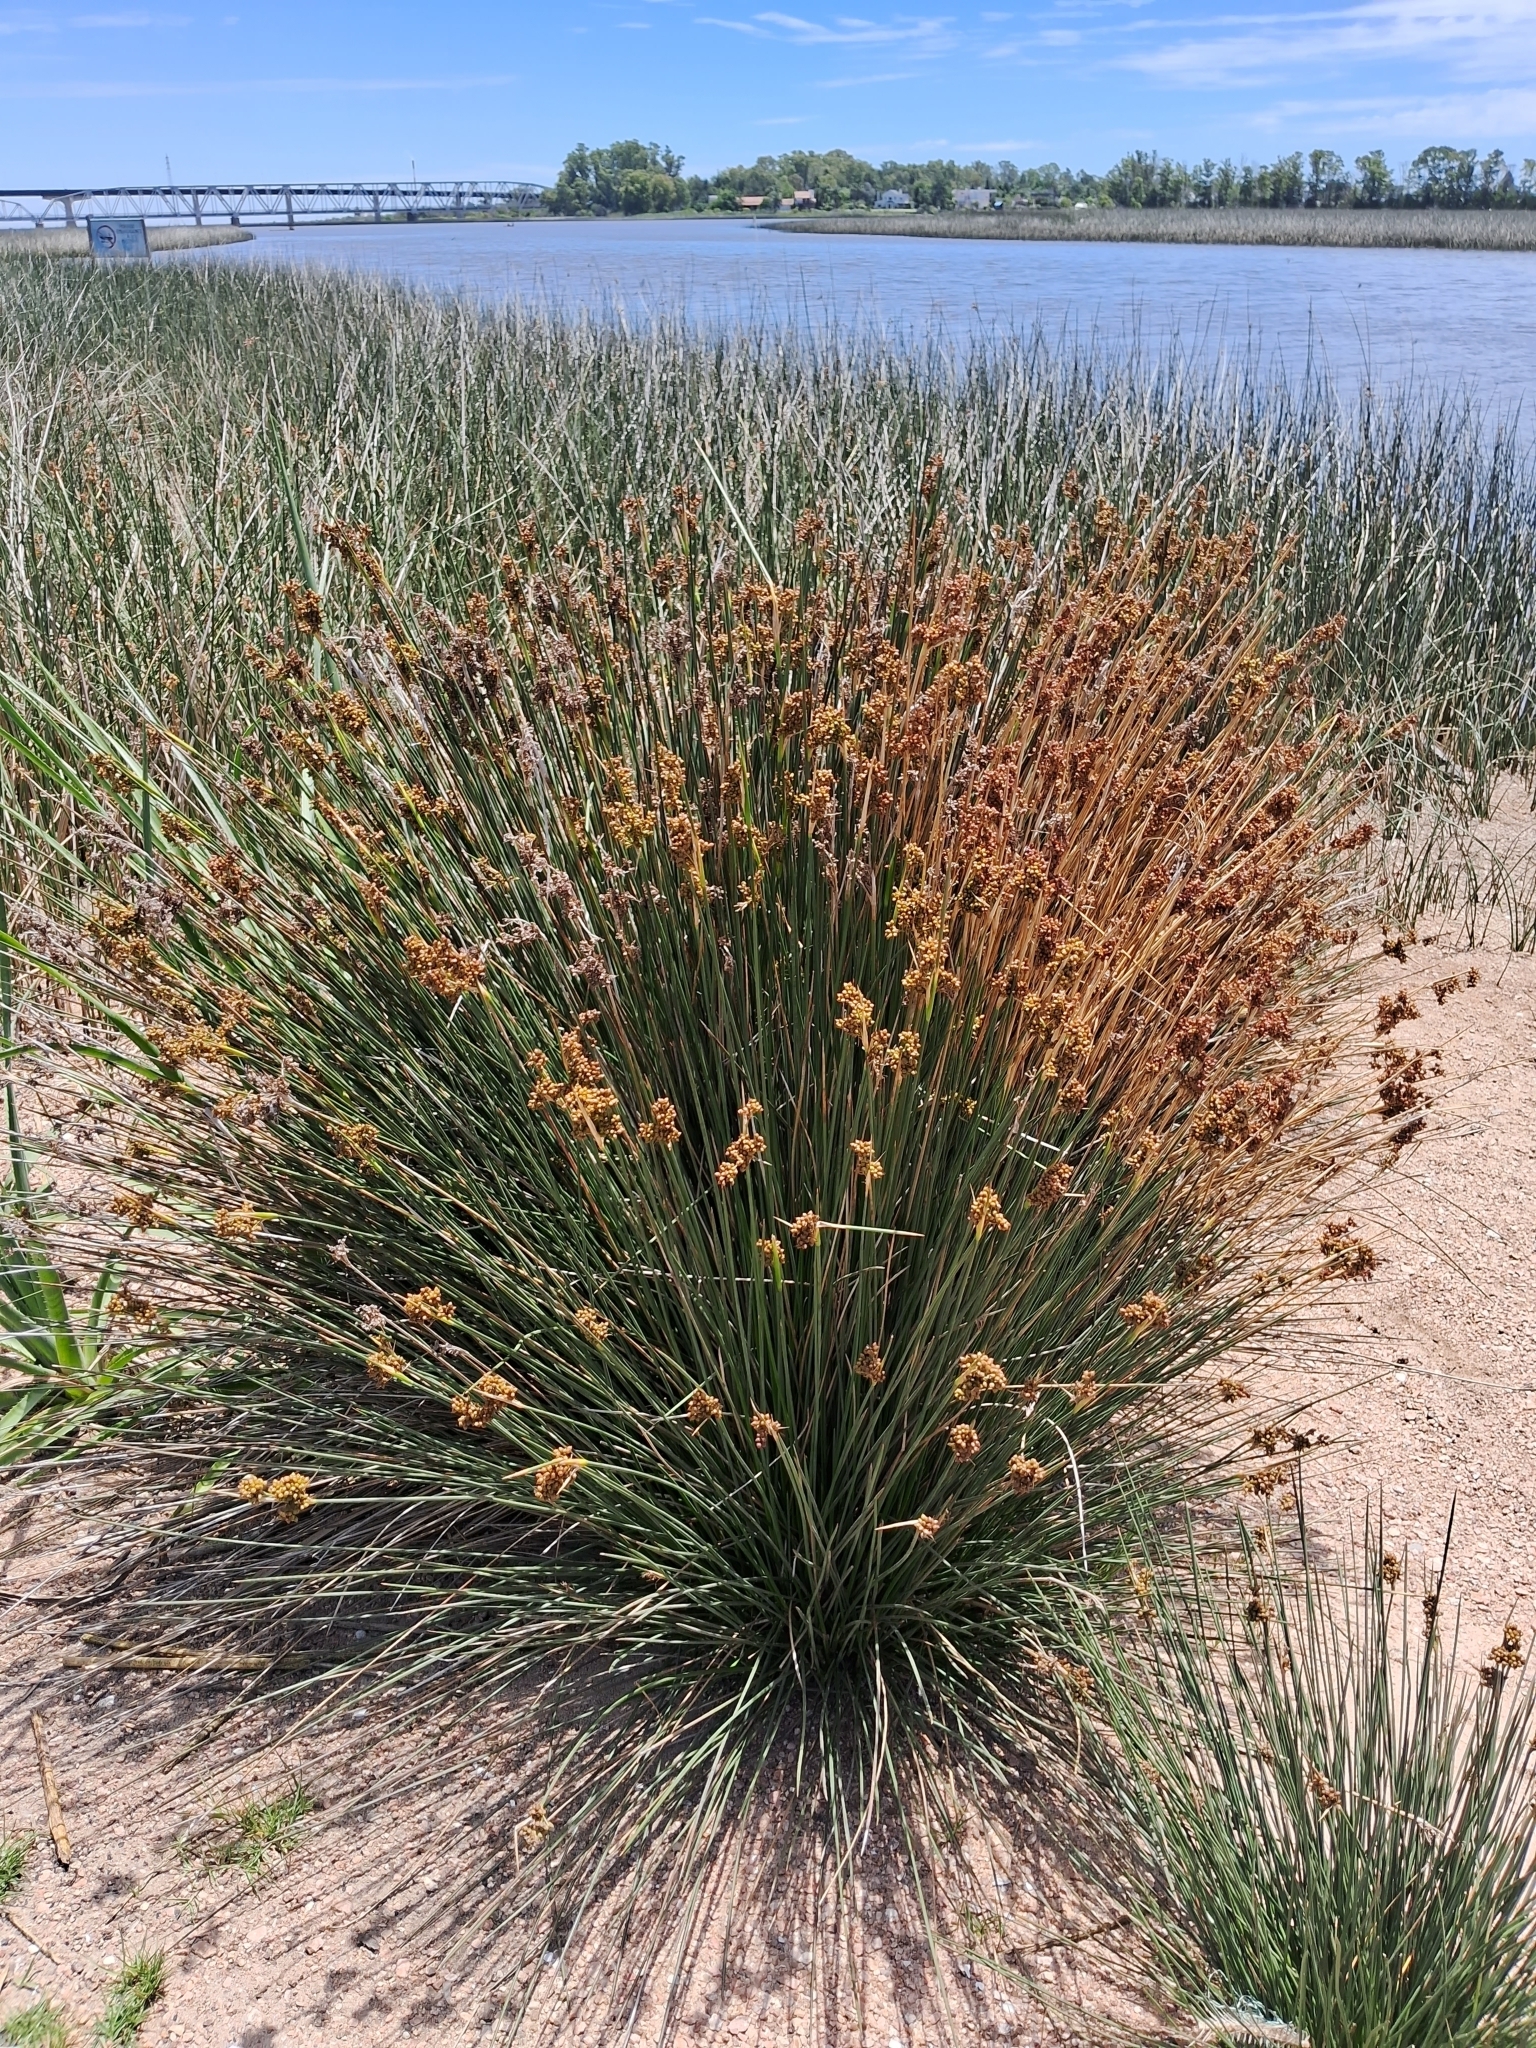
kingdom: Plantae
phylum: Tracheophyta
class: Liliopsida
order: Poales
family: Juncaceae
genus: Juncus
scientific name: Juncus acutus
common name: Sharp rush
